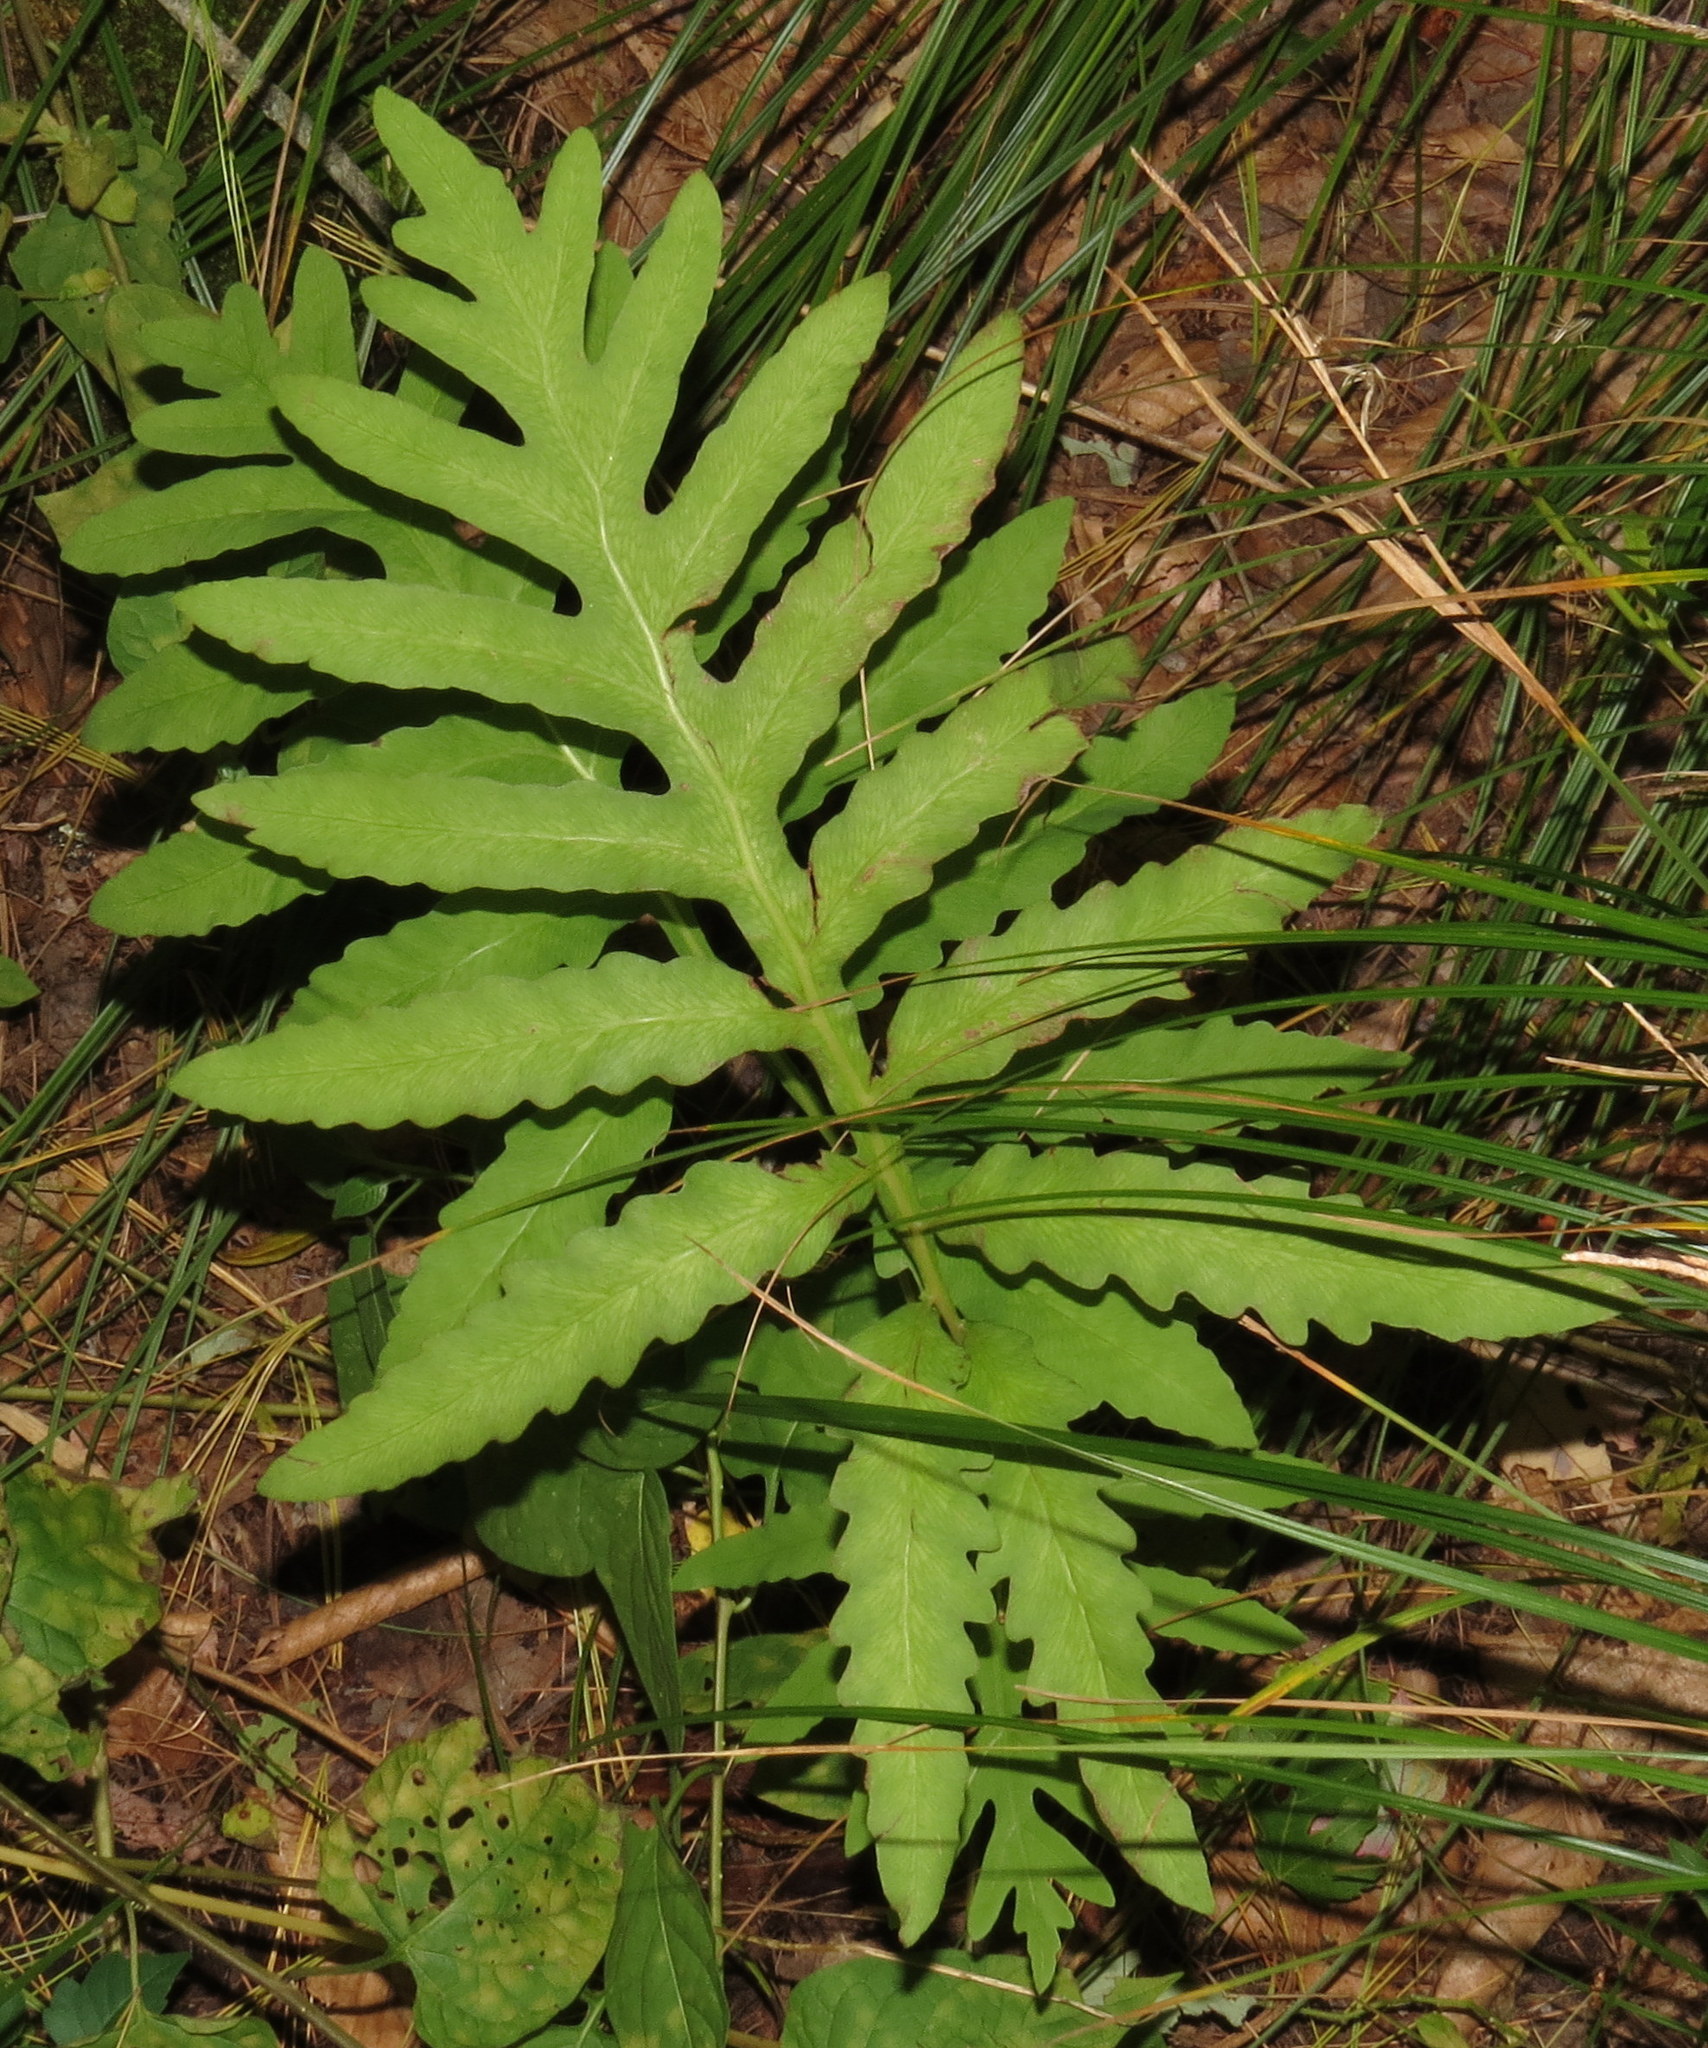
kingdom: Plantae
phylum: Tracheophyta
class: Polypodiopsida
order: Polypodiales
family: Onocleaceae
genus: Onoclea
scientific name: Onoclea sensibilis
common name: Sensitive fern
